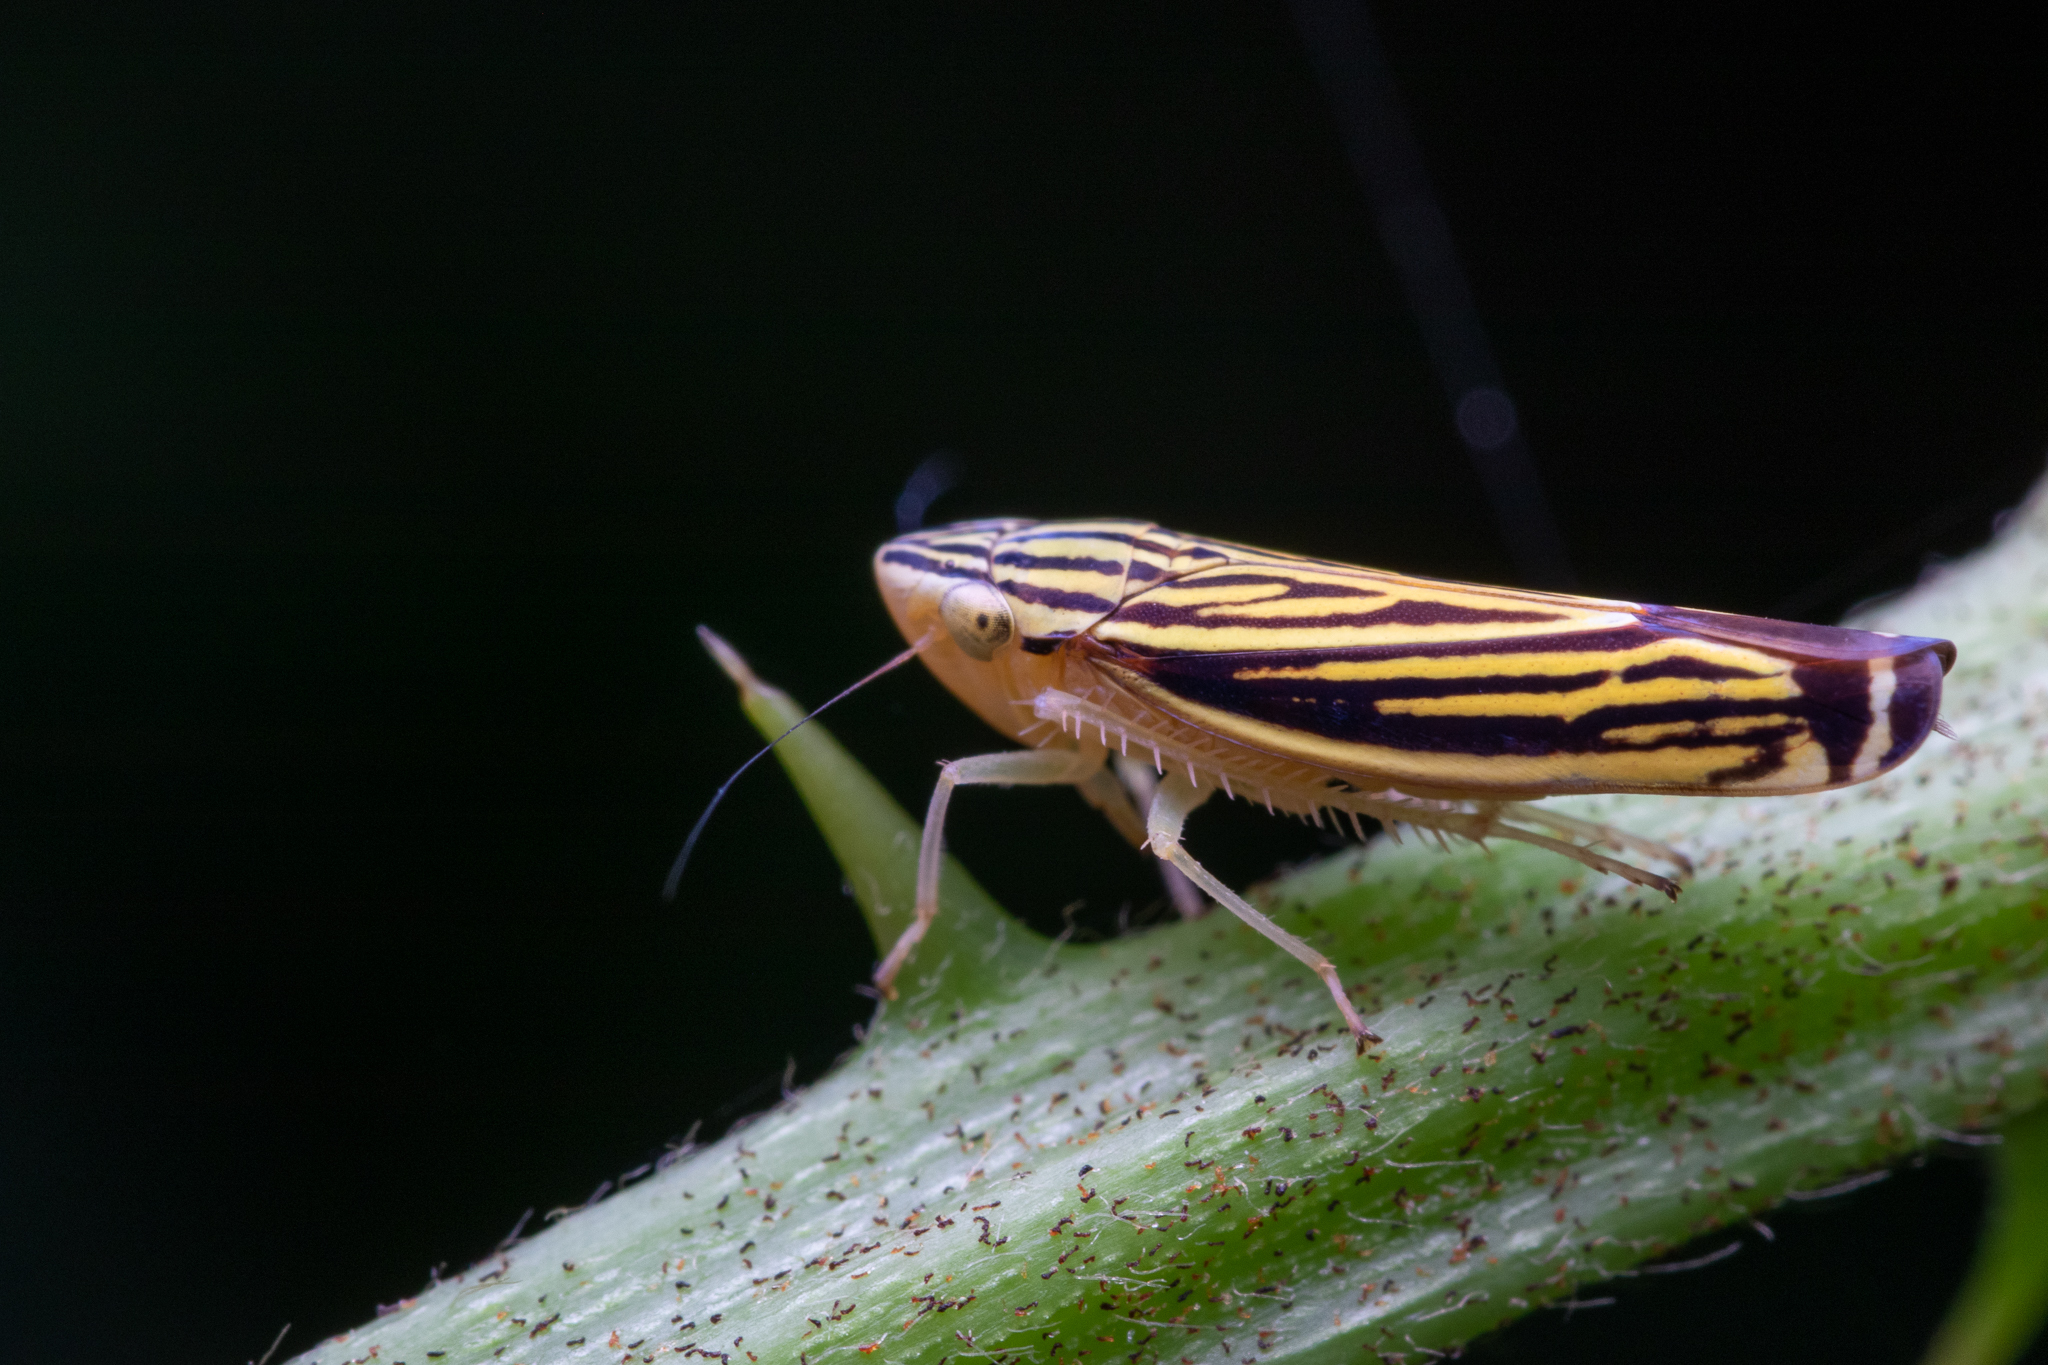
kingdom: Animalia
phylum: Arthropoda
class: Insecta
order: Hemiptera
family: Cicadellidae
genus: Sibovia
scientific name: Sibovia occatoria
